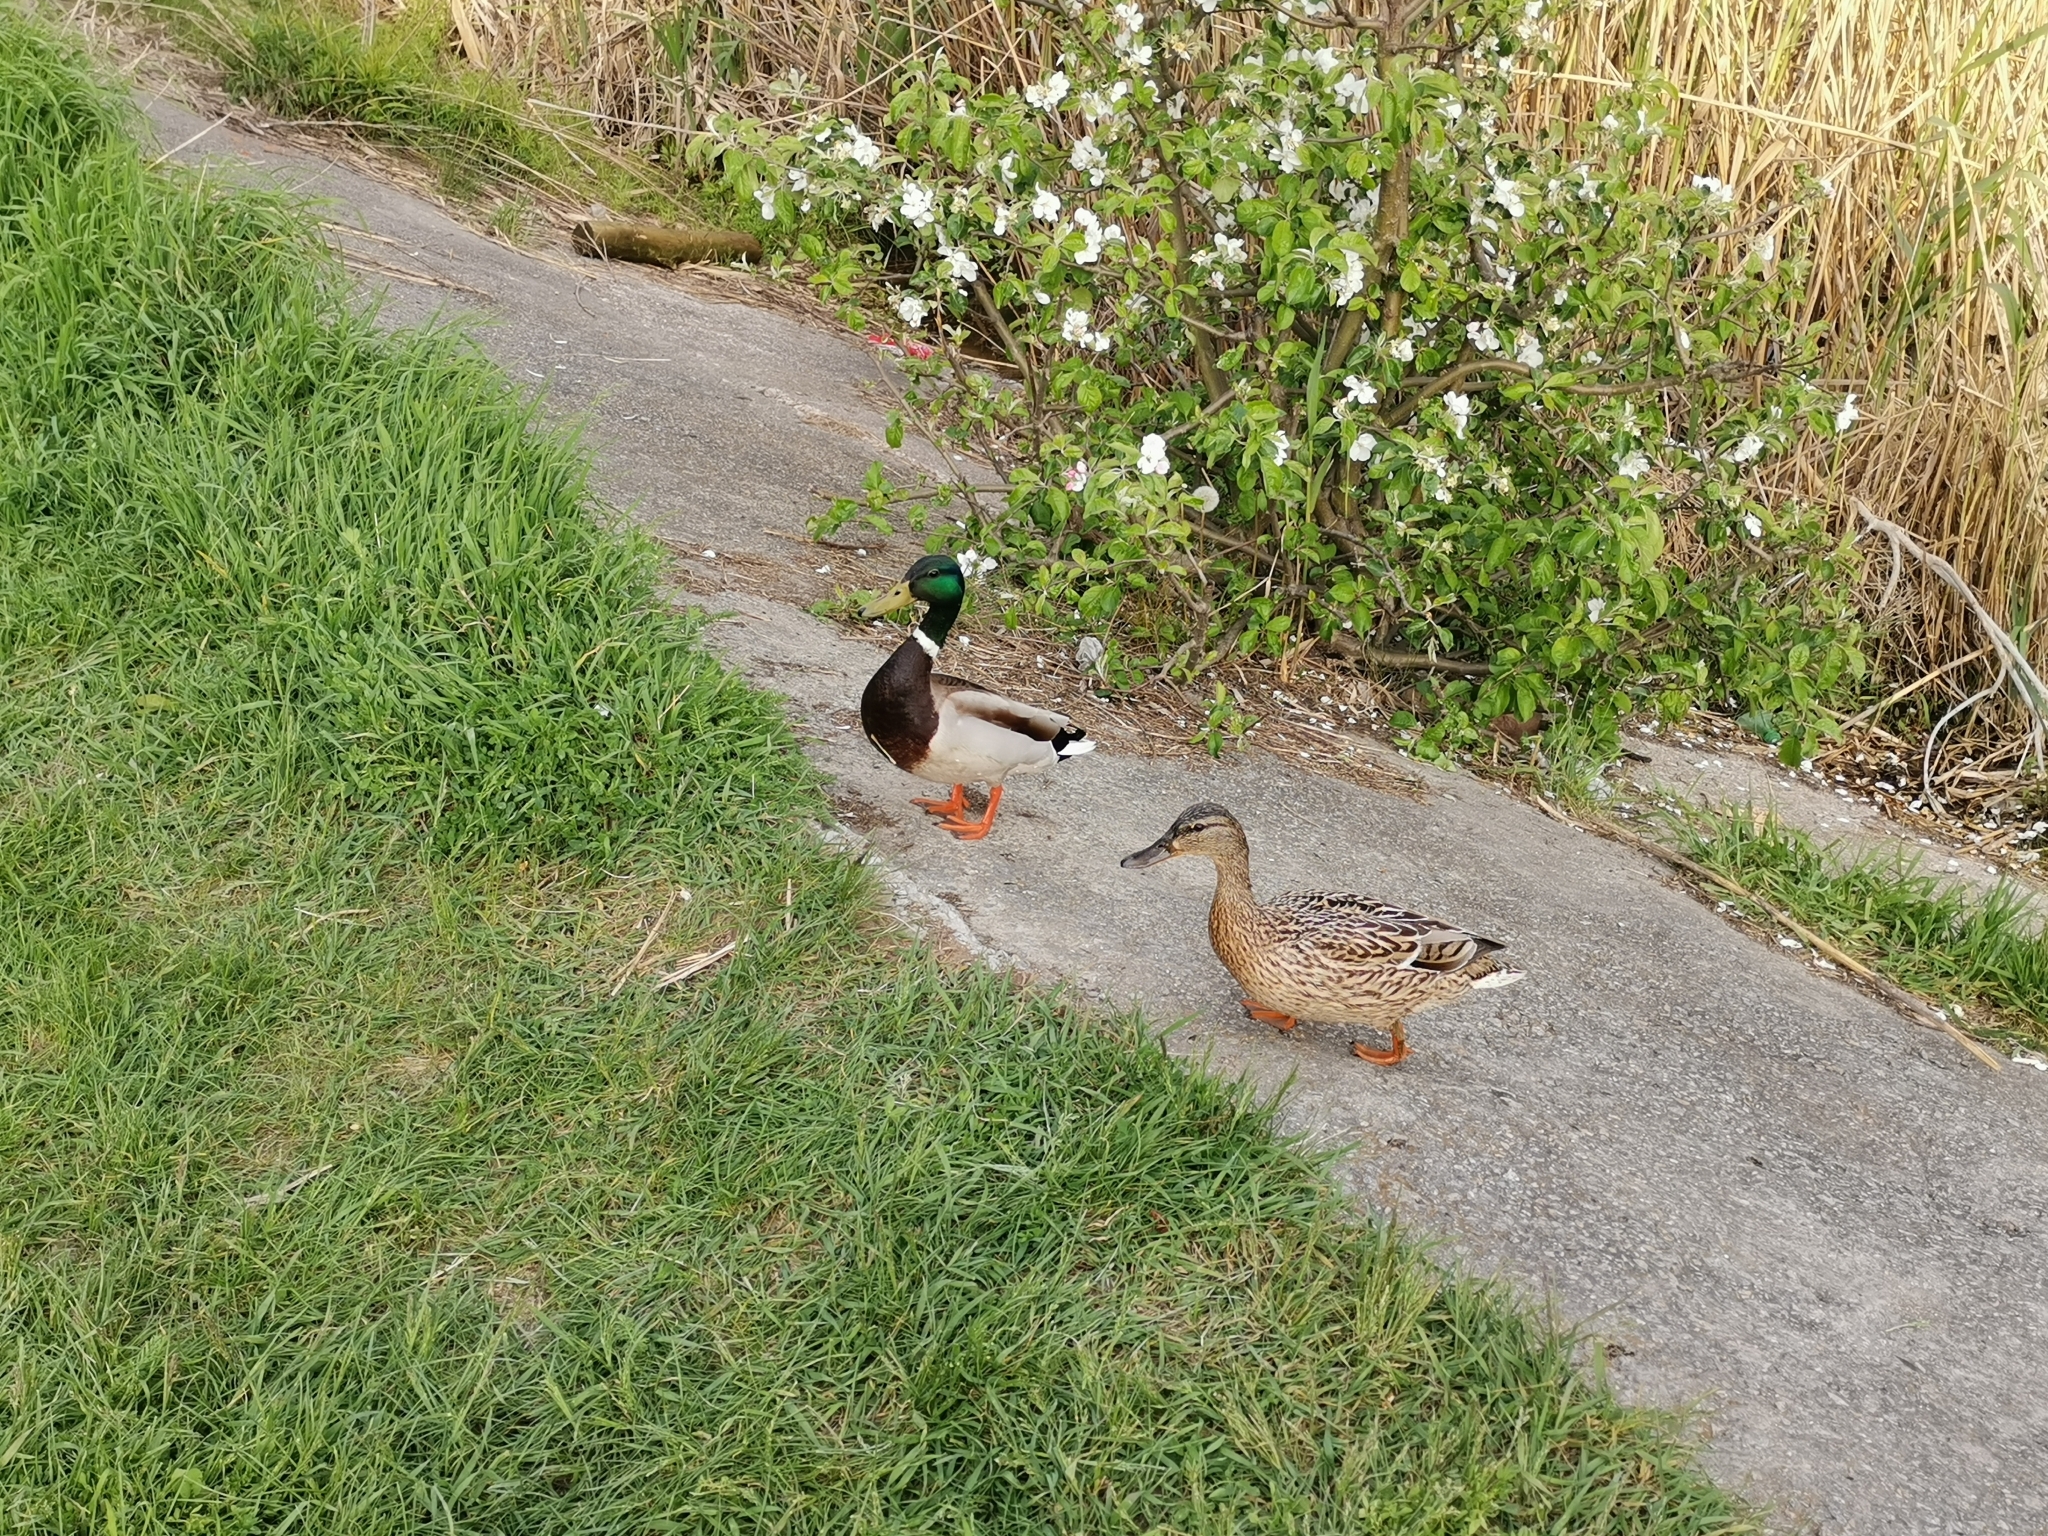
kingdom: Animalia
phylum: Chordata
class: Aves
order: Anseriformes
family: Anatidae
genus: Anas
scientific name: Anas platyrhynchos
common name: Mallard
